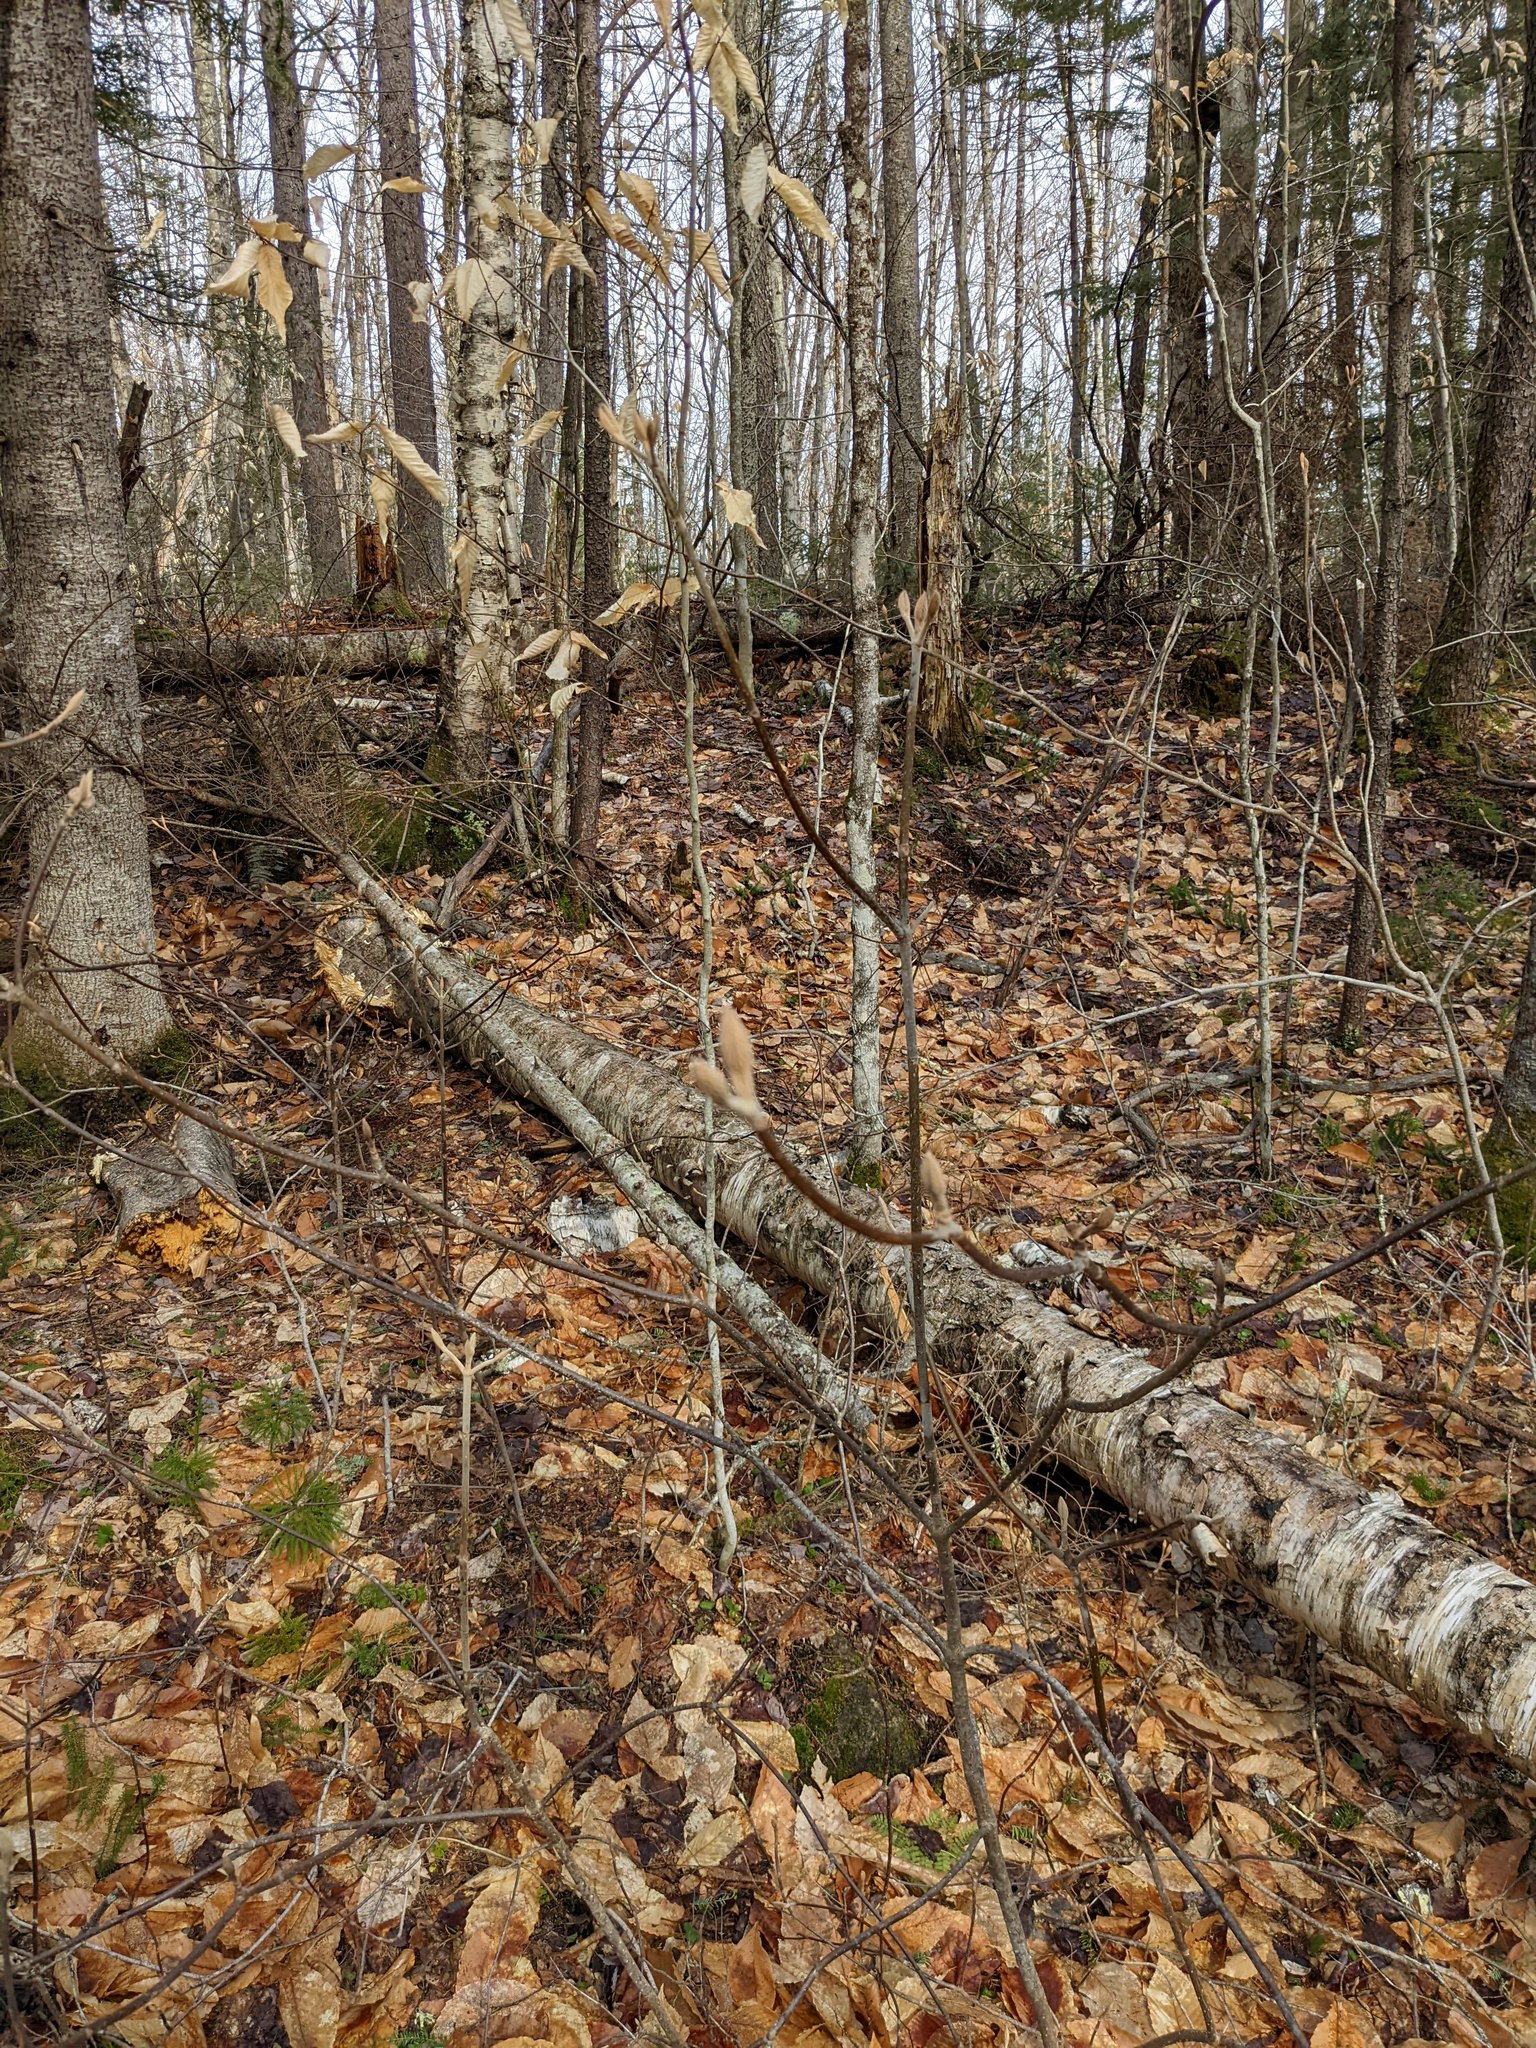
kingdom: Plantae
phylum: Tracheophyta
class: Magnoliopsida
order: Dipsacales
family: Viburnaceae
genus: Viburnum
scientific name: Viburnum lantanoides
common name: Hobblebush
